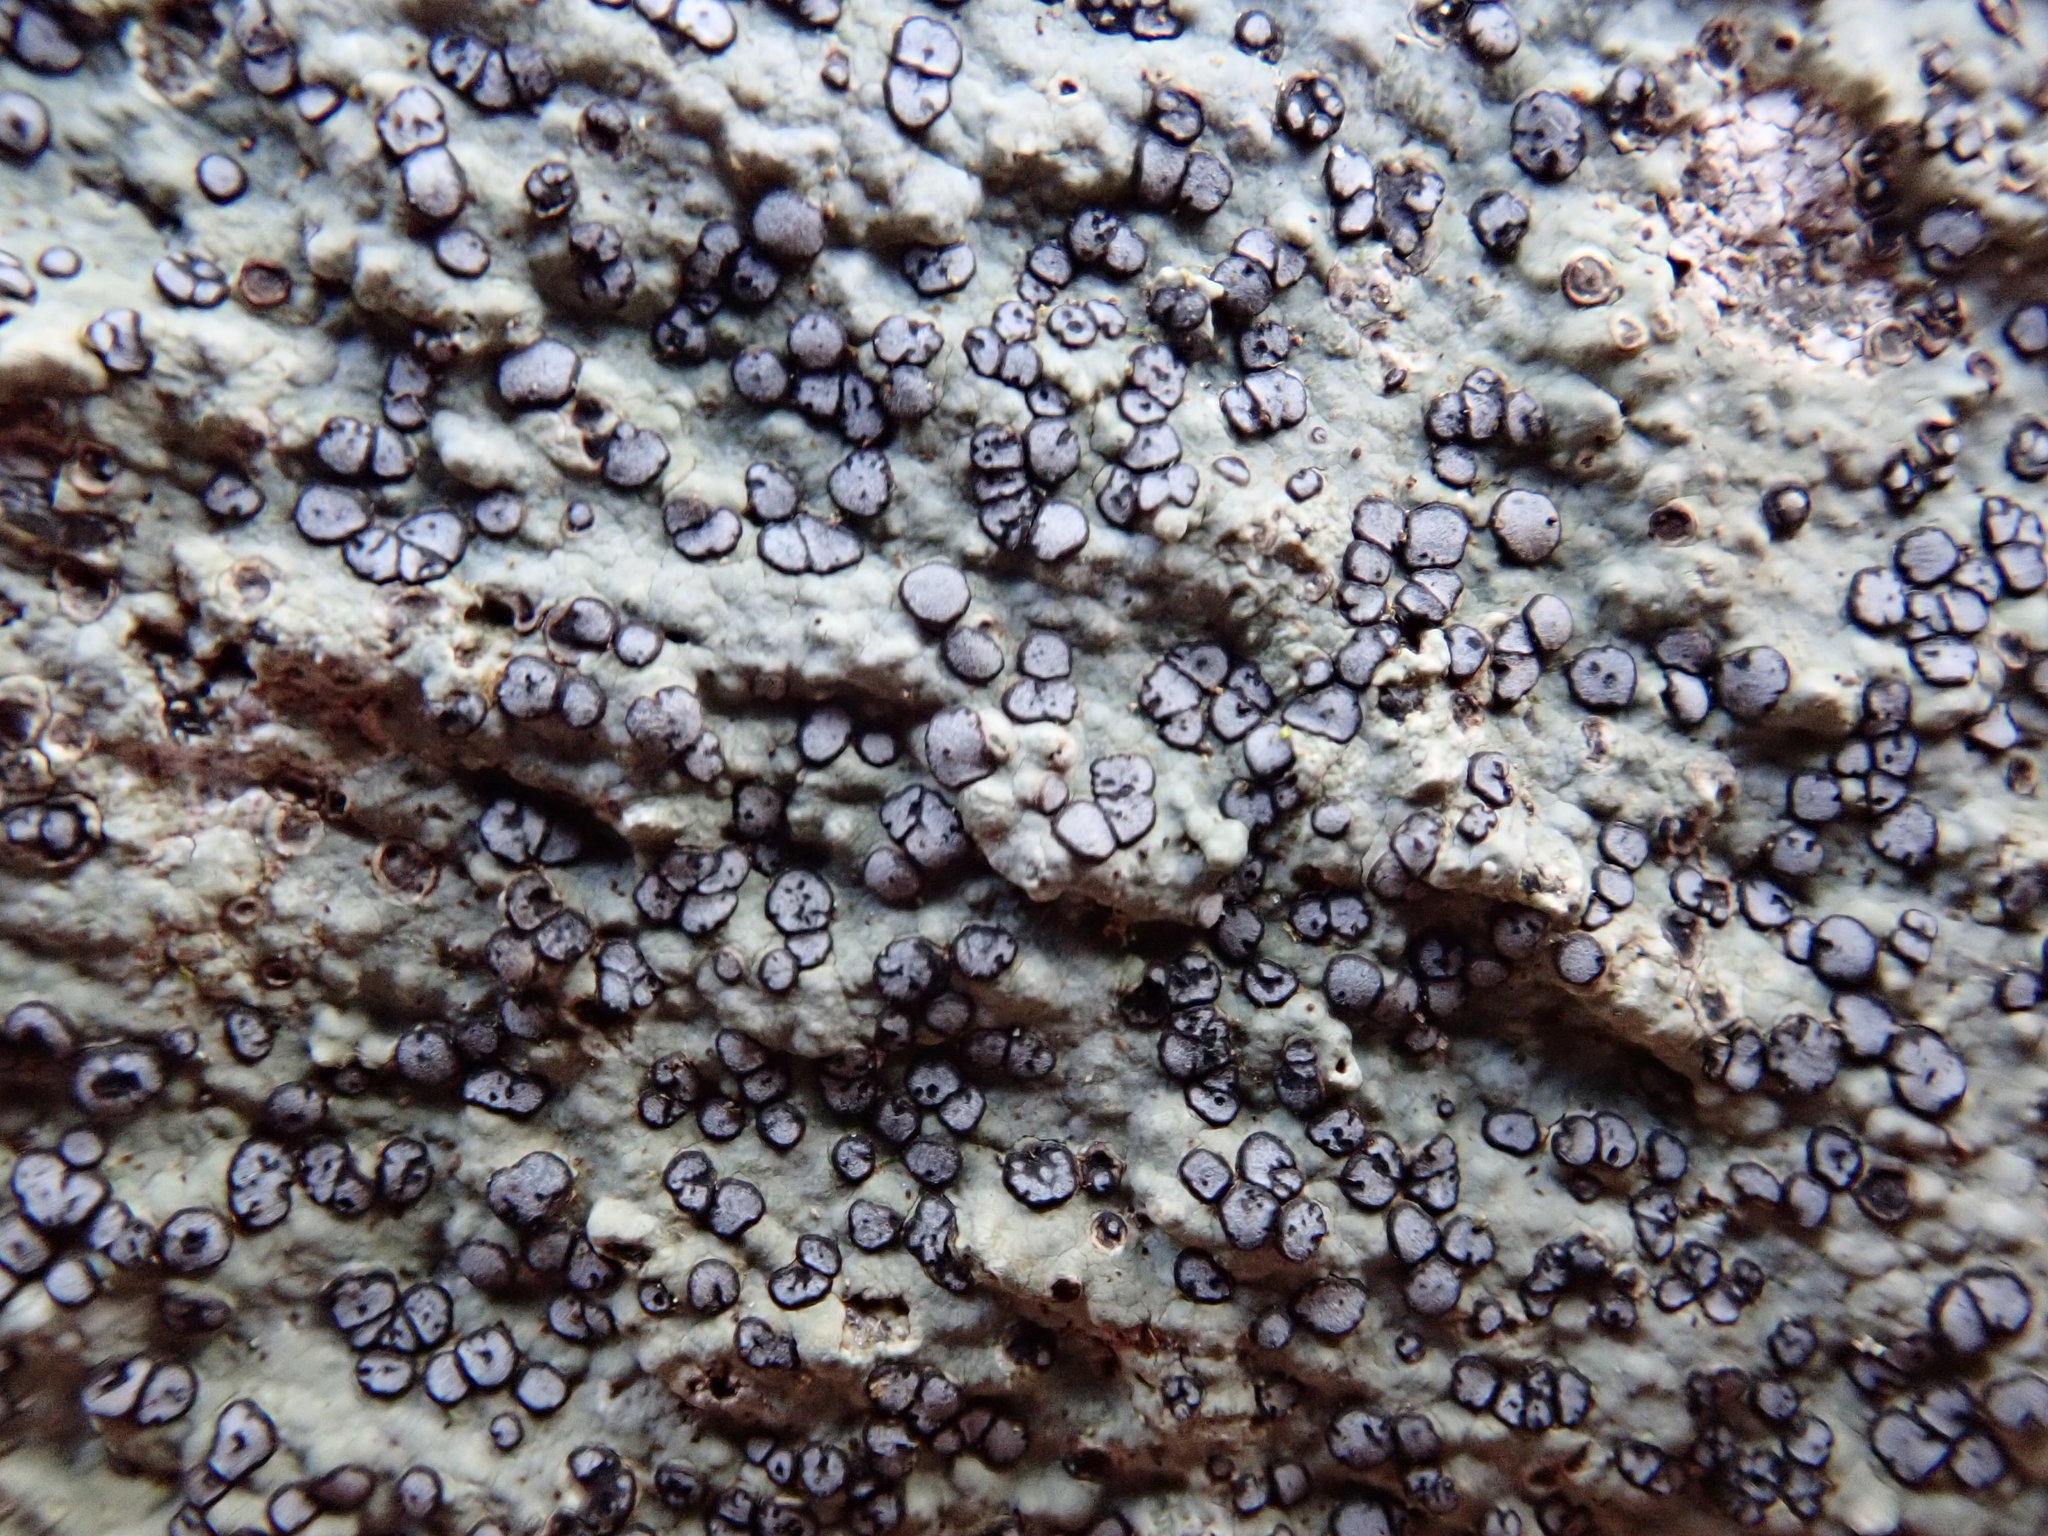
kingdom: Fungi
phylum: Ascomycota
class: Lecanoromycetes
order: Lecideales
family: Lecideaceae
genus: Porpidia
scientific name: Porpidia albocaerulescens
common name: Smokey-eyed boulder lichen
